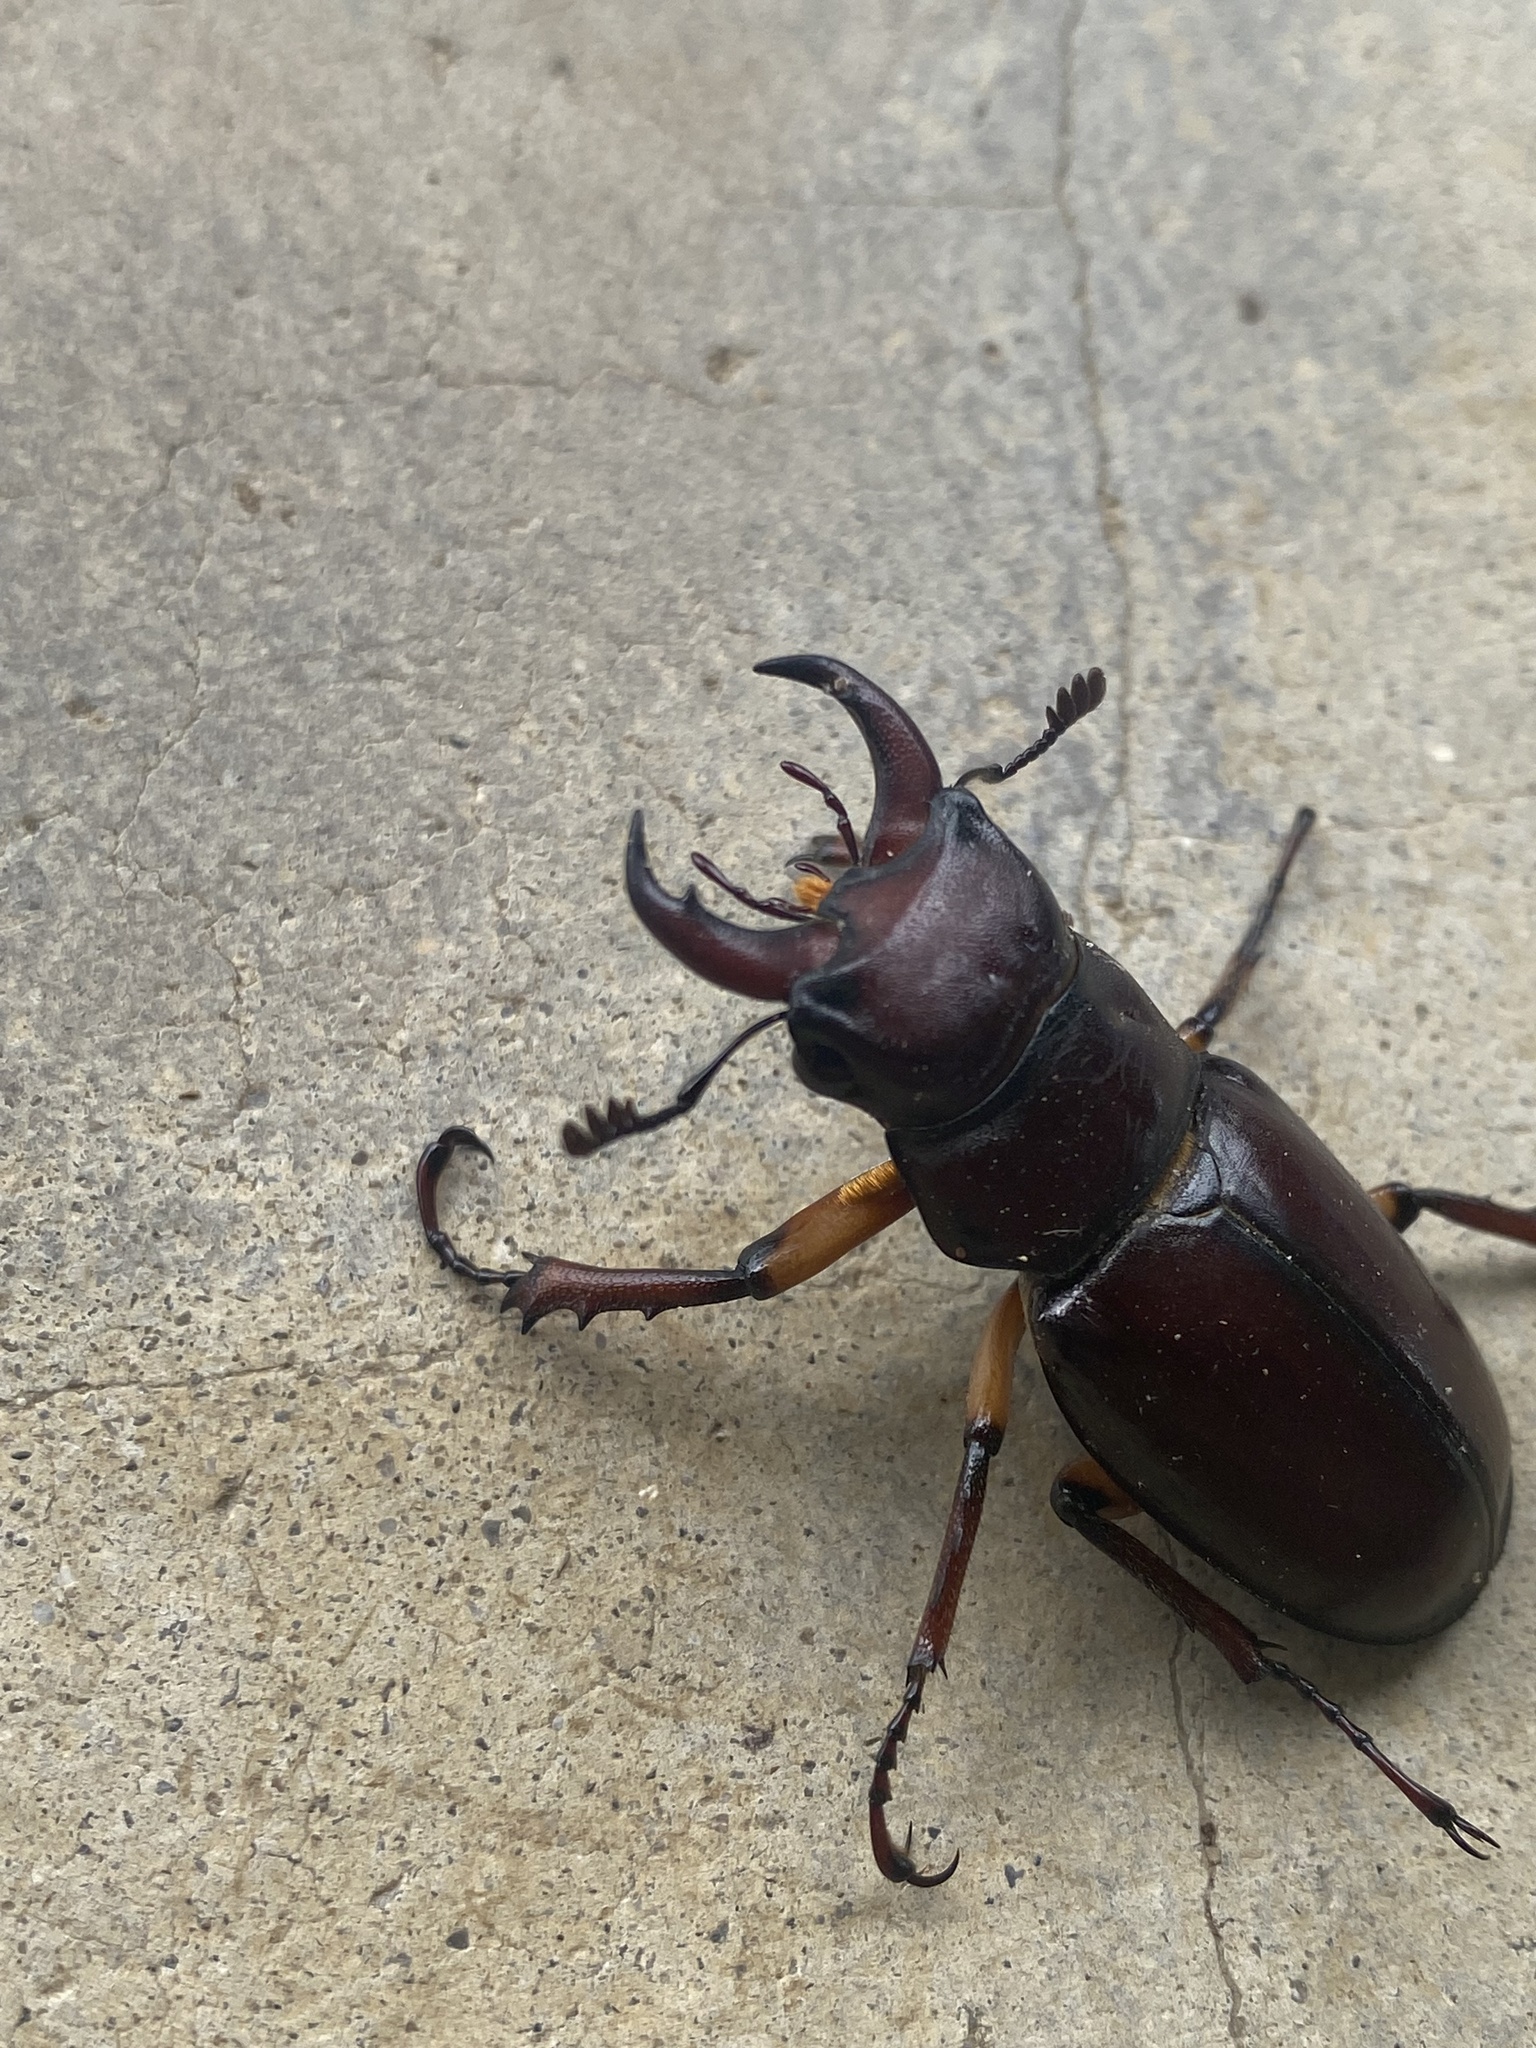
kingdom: Animalia
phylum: Arthropoda
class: Insecta
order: Coleoptera
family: Lucanidae
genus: Lucanus
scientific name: Lucanus capreolus
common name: Stag beetle
